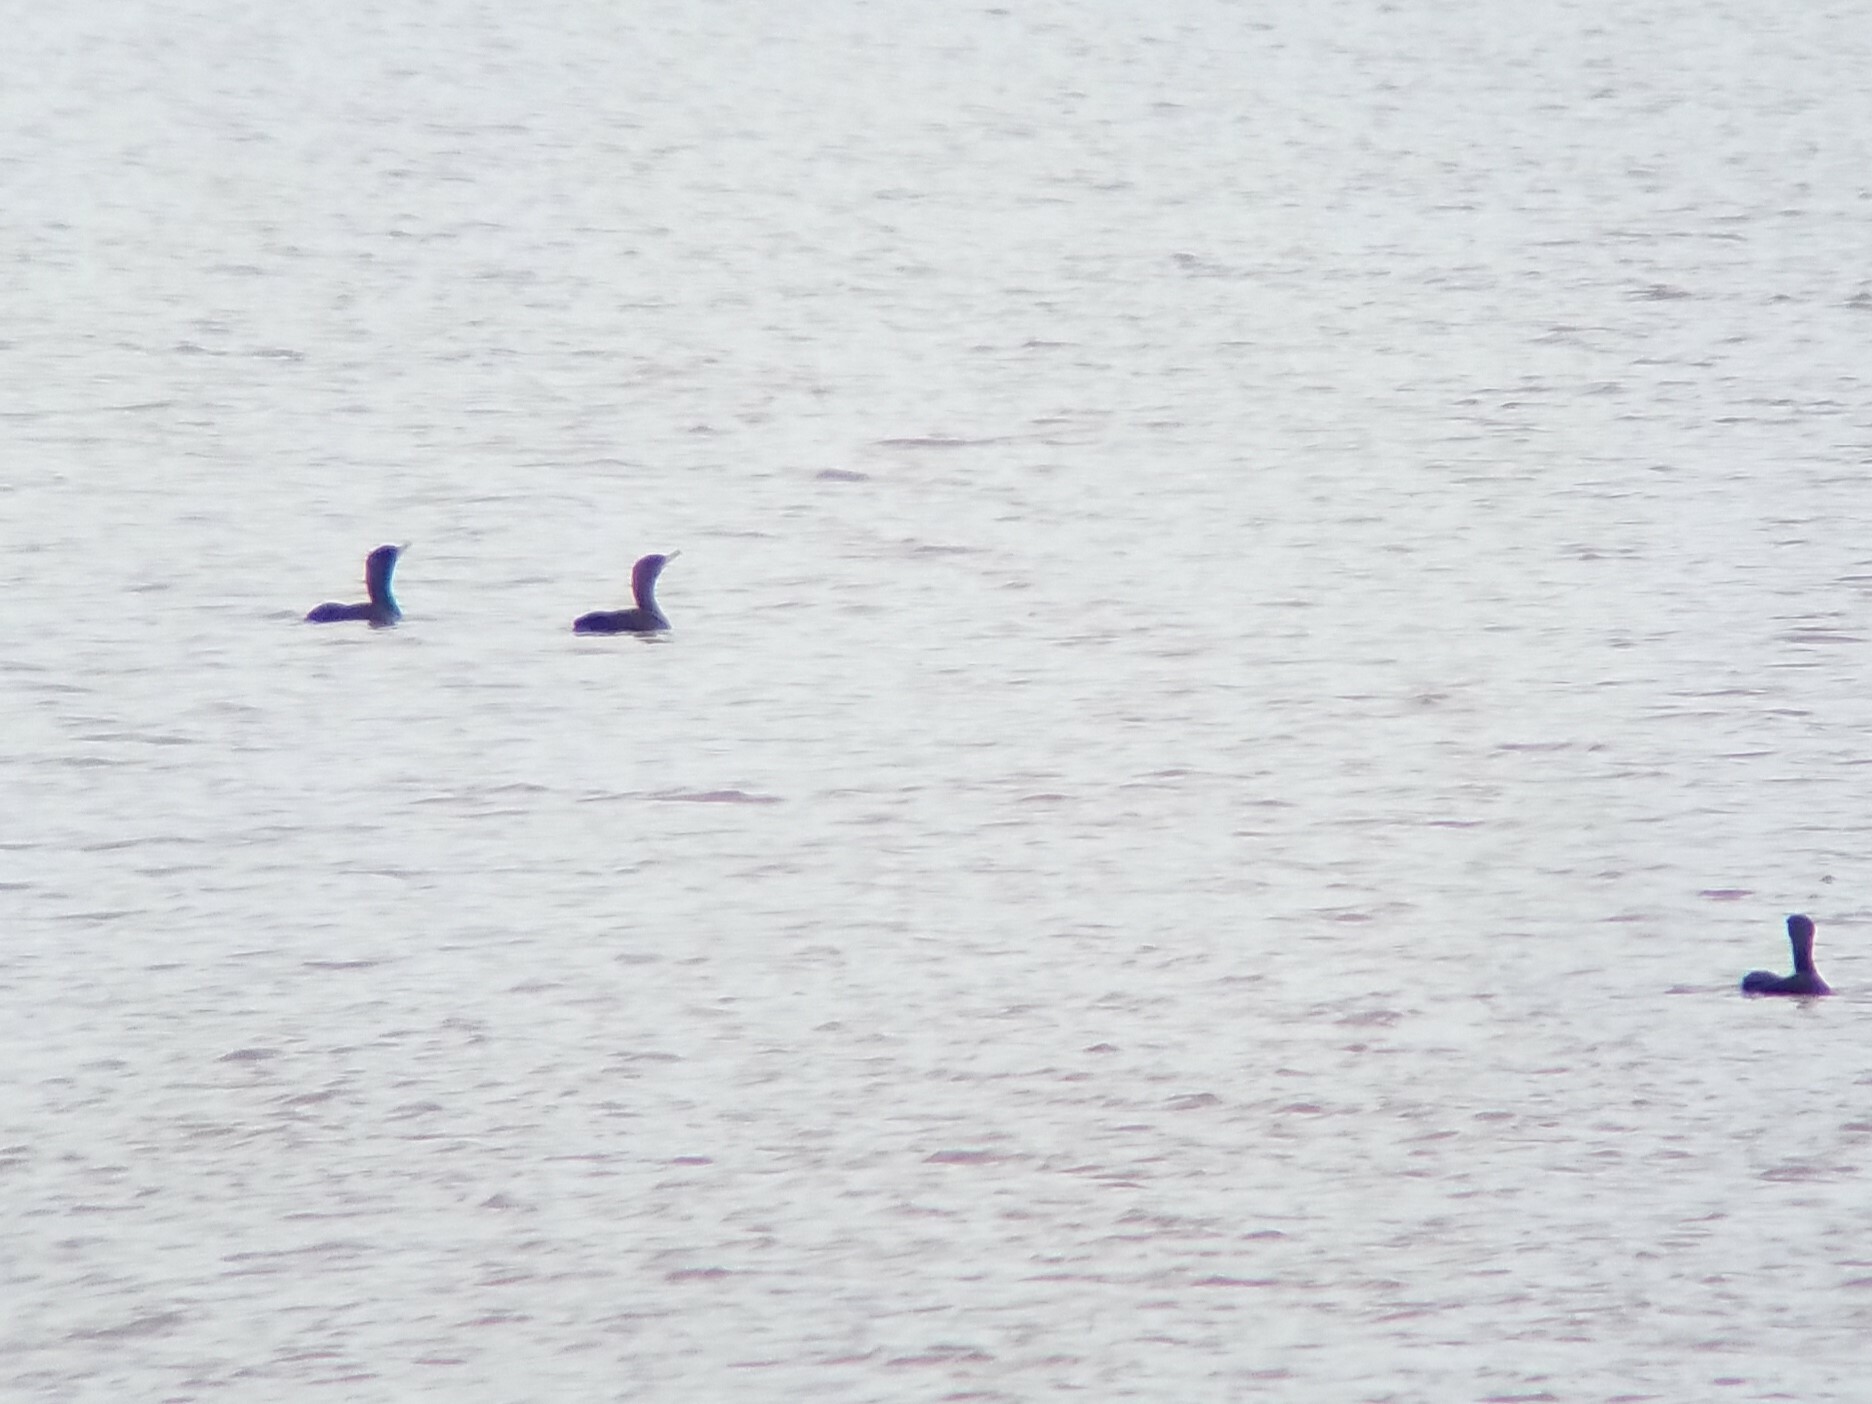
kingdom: Animalia
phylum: Chordata
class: Aves
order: Suliformes
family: Phalacrocoracidae
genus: Phalacrocorax
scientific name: Phalacrocorax auritus
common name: Double-crested cormorant
